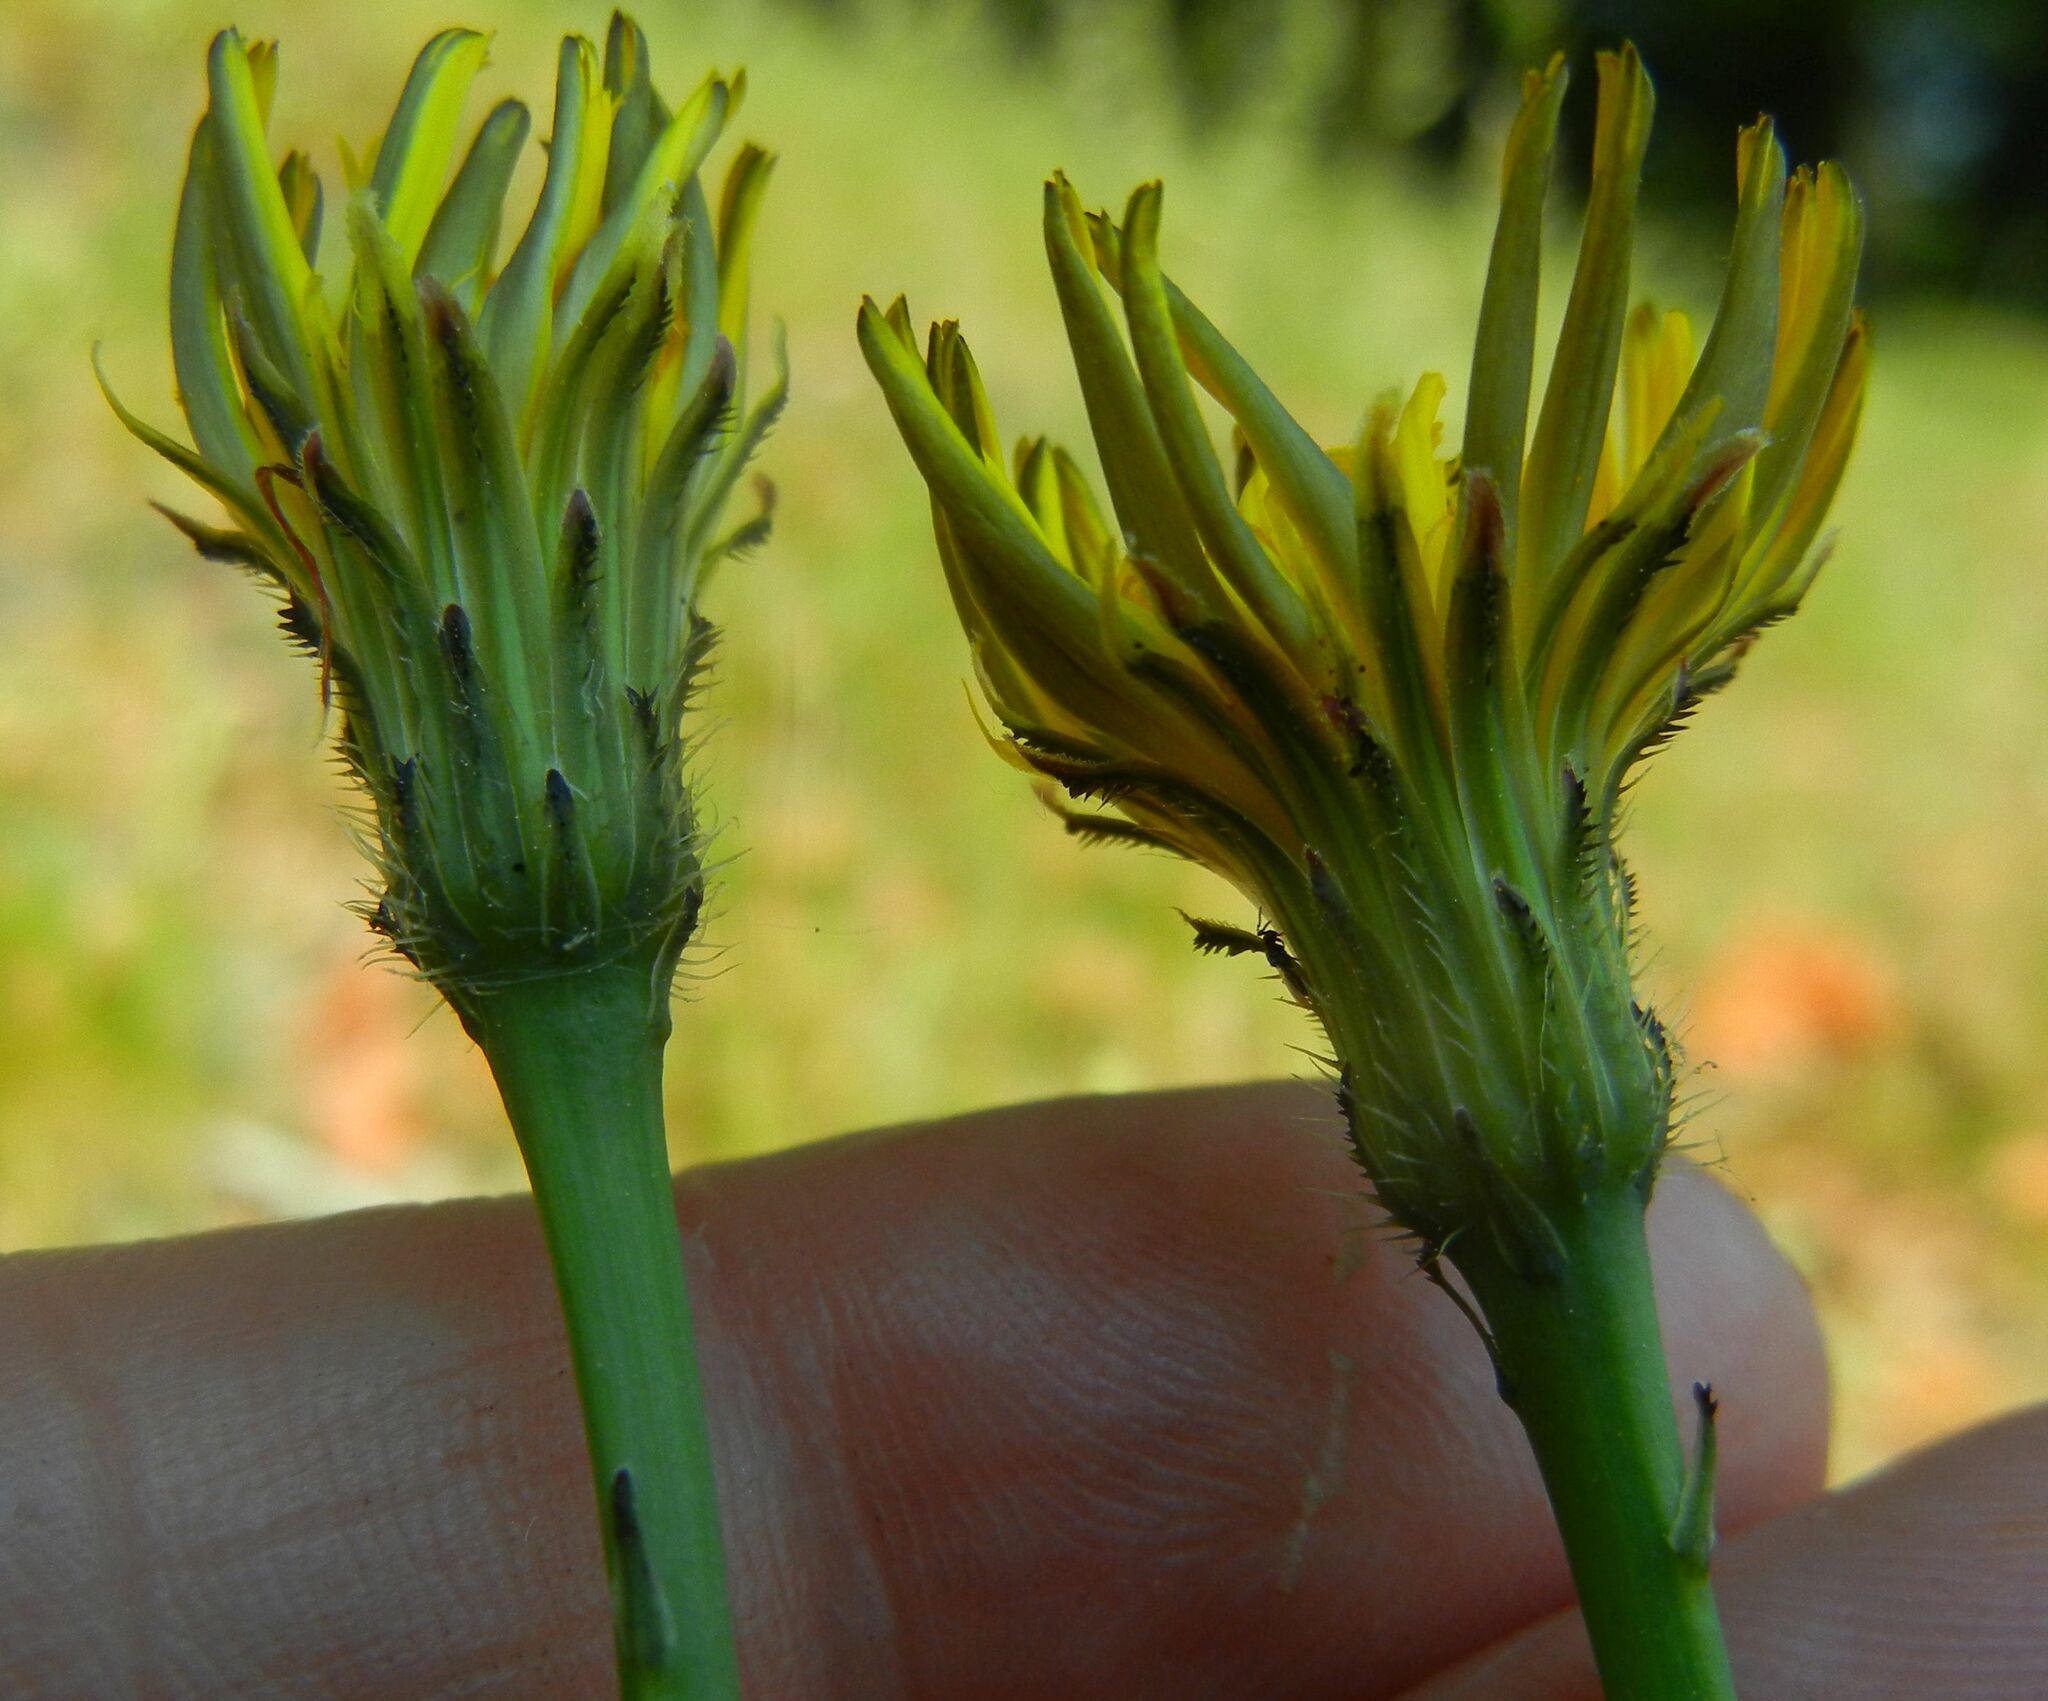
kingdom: Plantae
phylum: Tracheophyta
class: Magnoliopsida
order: Asterales
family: Asteraceae
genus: Hypochaeris
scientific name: Hypochaeris radicata
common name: Flatweed
